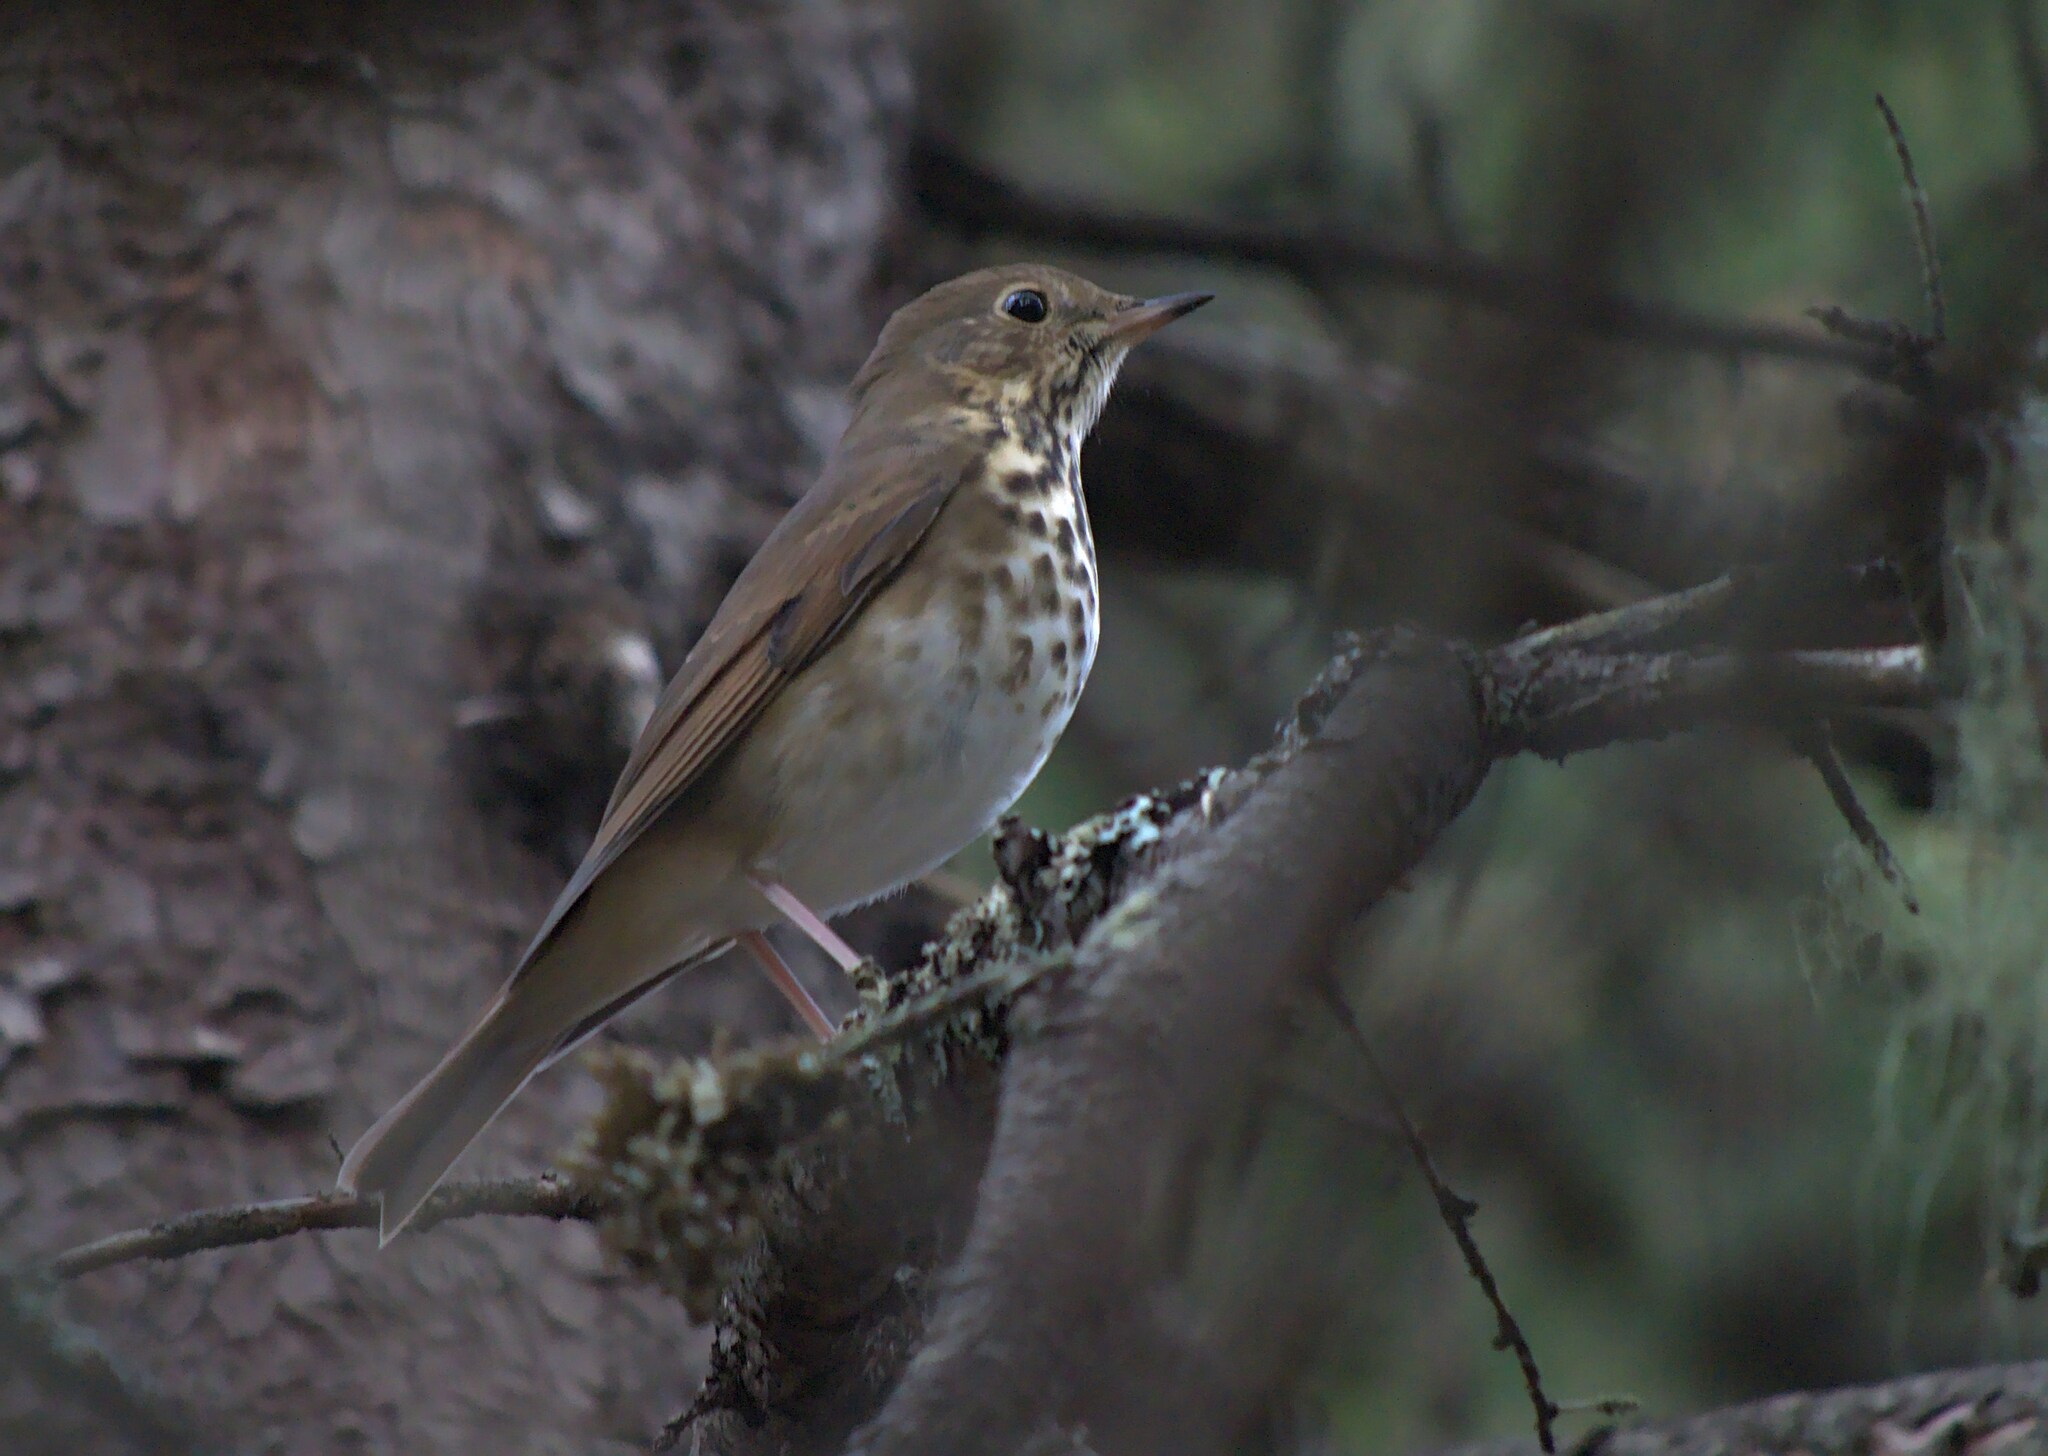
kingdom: Animalia
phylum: Chordata
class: Aves
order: Passeriformes
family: Turdidae
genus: Catharus
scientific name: Catharus guttatus
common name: Hermit thrush
